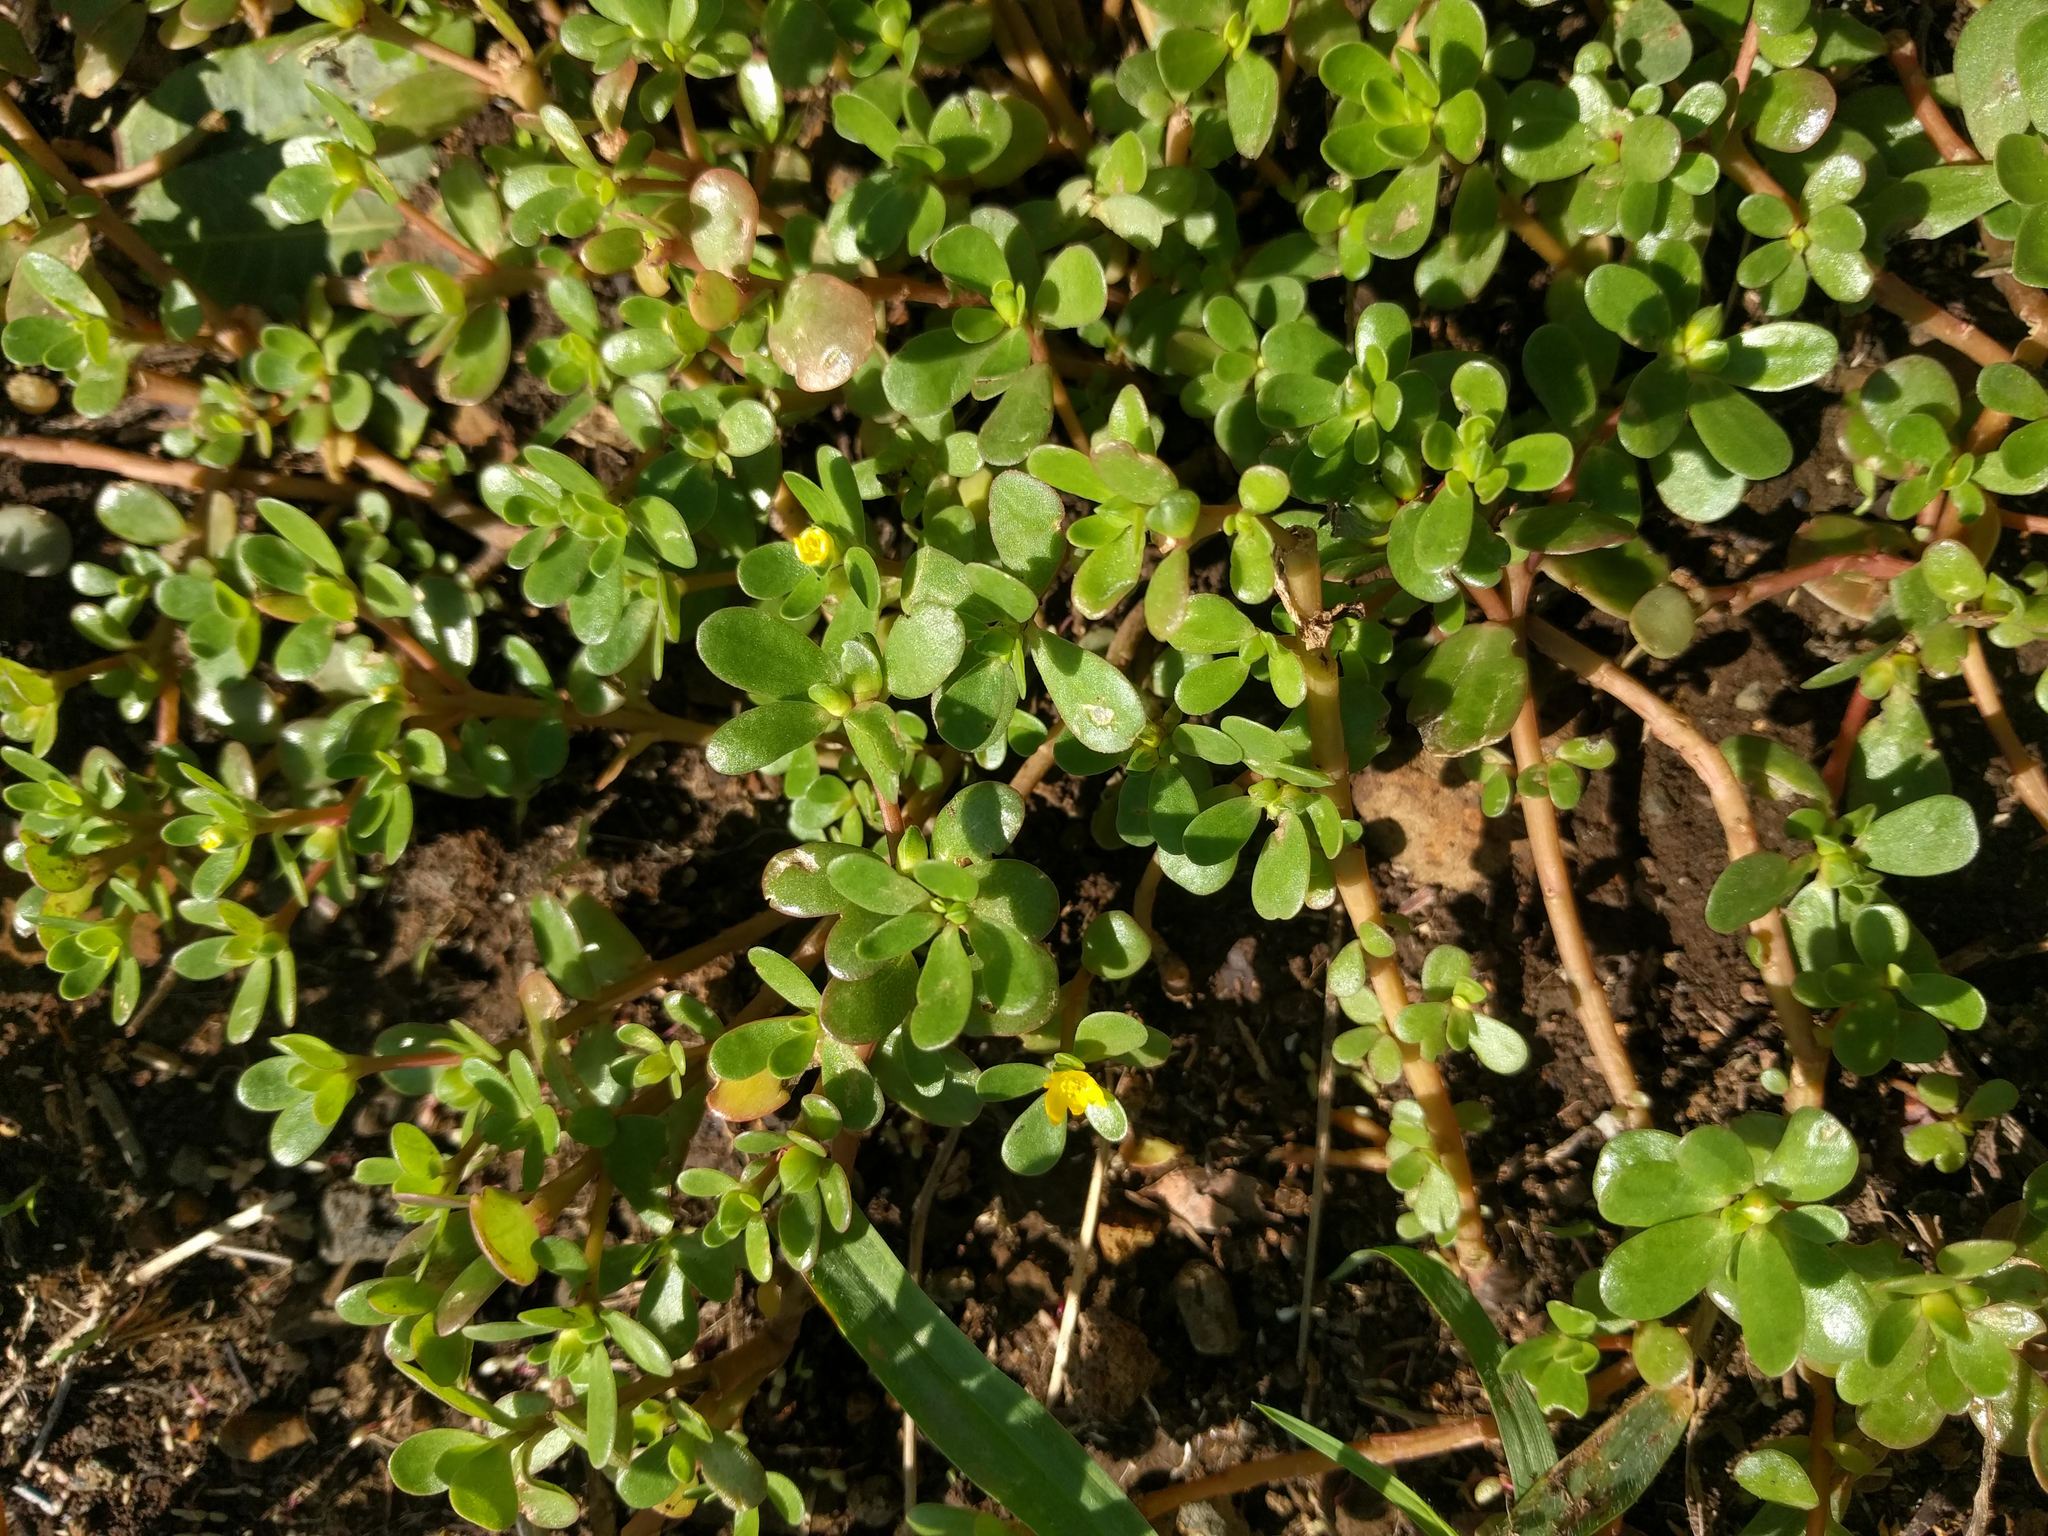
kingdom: Plantae
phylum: Tracheophyta
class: Magnoliopsida
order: Caryophyllales
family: Portulacaceae
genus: Portulaca
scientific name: Portulaca oleracea
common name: Common purslane
